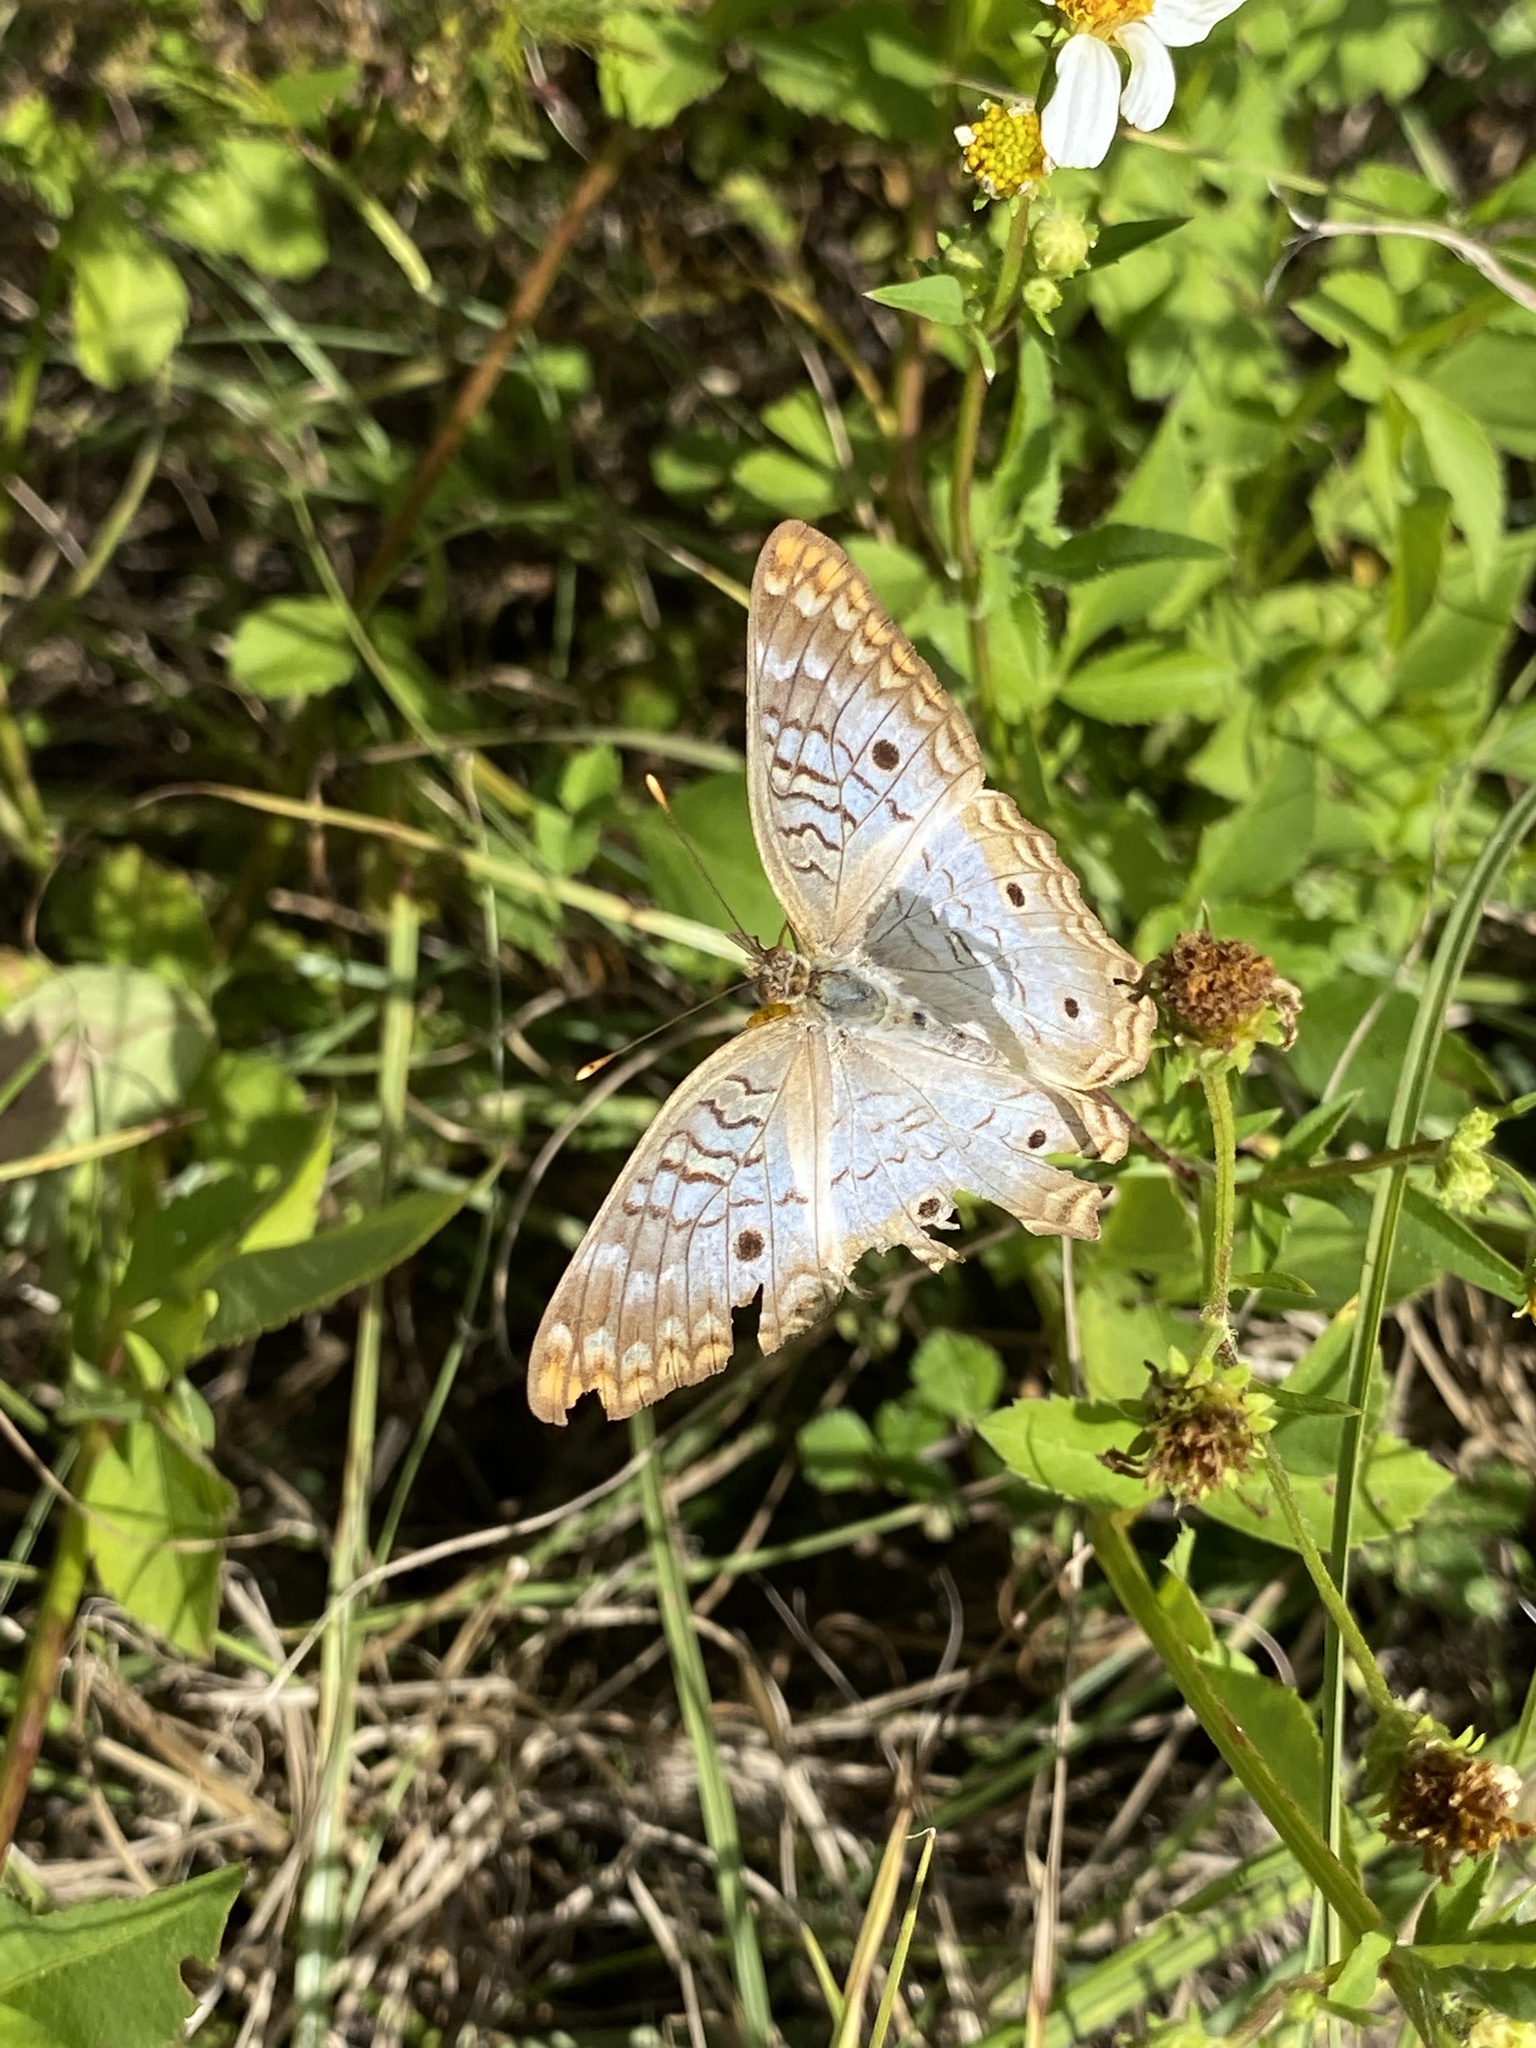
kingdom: Animalia
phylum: Arthropoda
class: Insecta
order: Lepidoptera
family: Nymphalidae
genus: Anartia
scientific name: Anartia jatrophae
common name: White peacock
